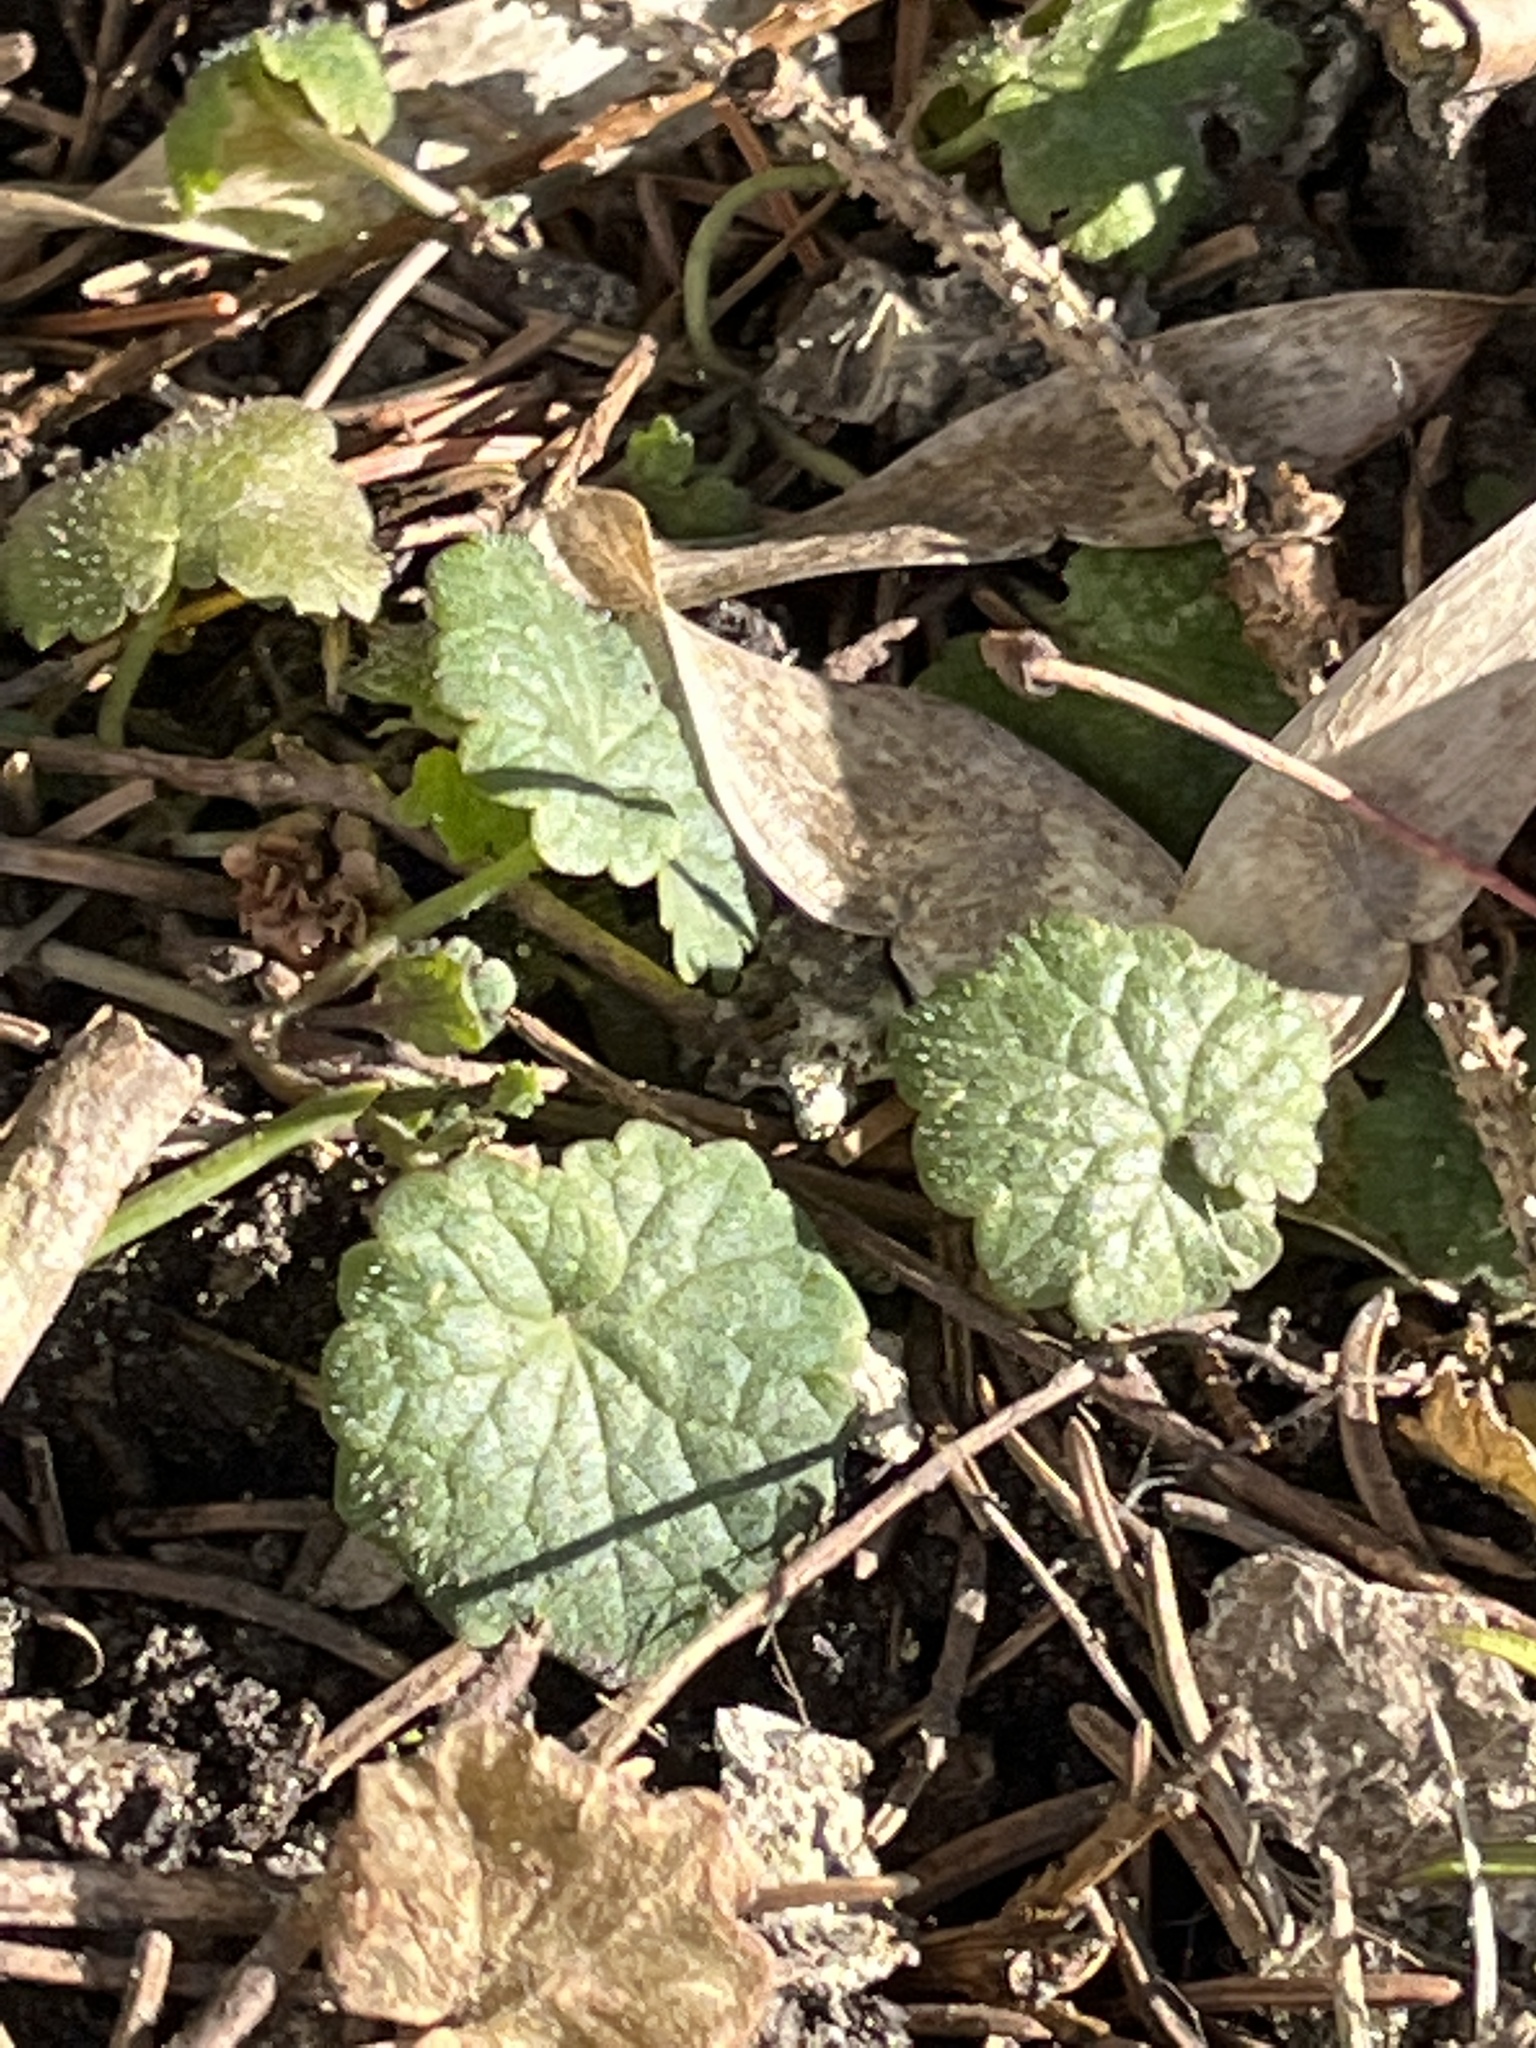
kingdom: Plantae
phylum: Tracheophyta
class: Magnoliopsida
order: Lamiales
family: Lamiaceae
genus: Glechoma
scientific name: Glechoma hederacea
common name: Ground ivy
